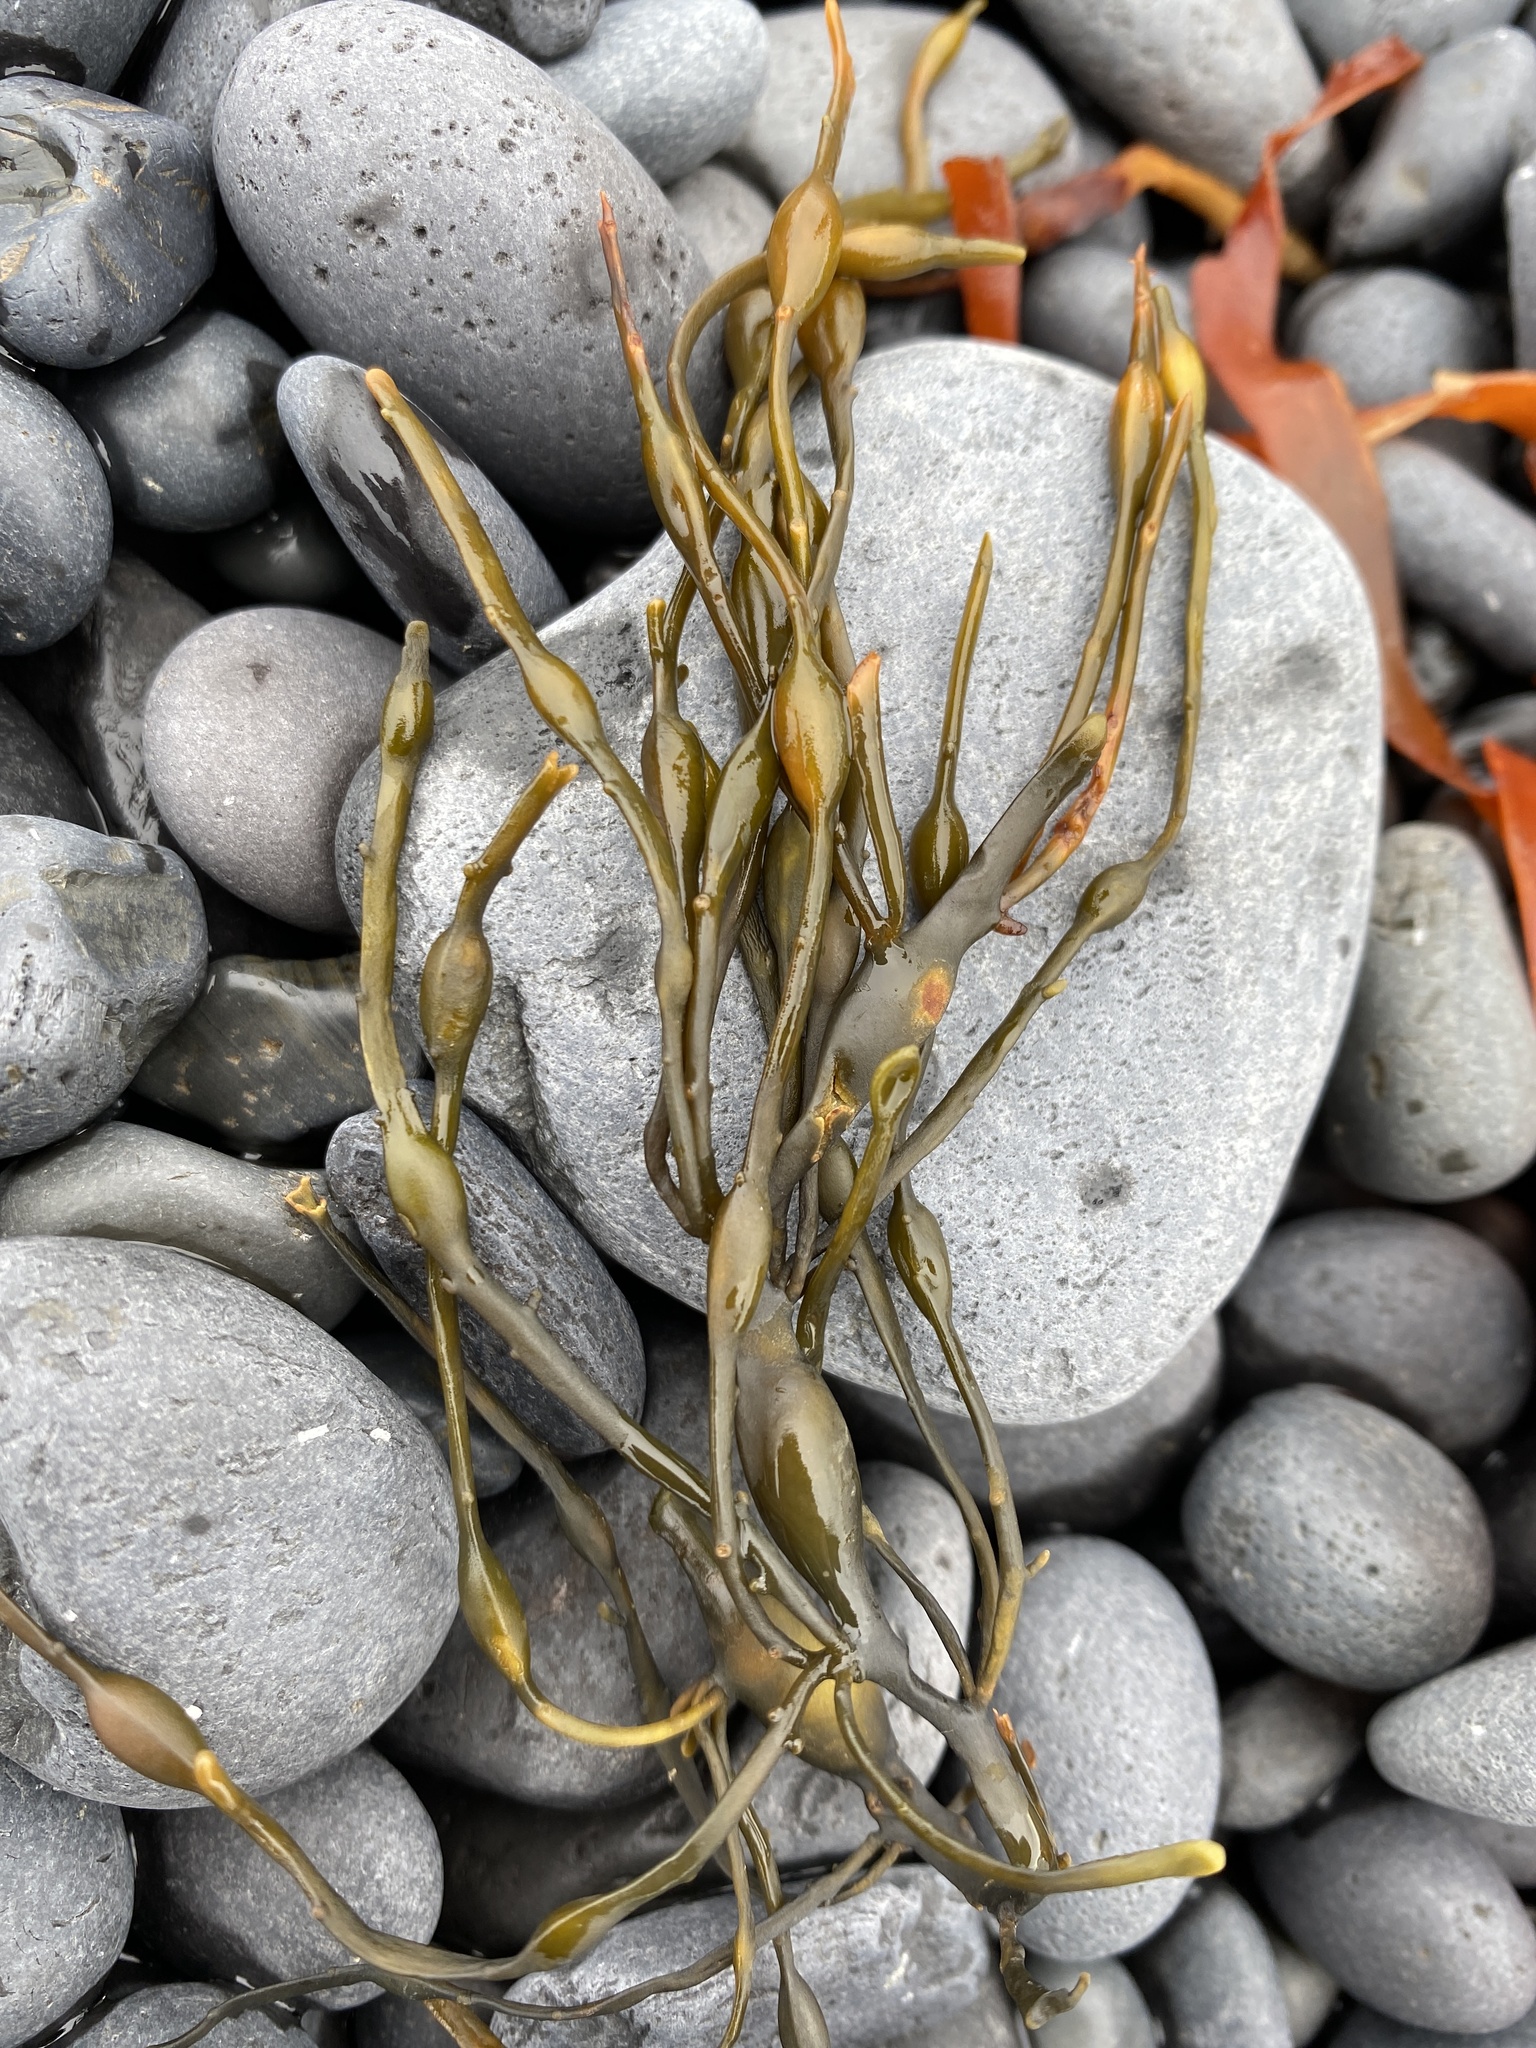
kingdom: Chromista
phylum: Ochrophyta
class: Phaeophyceae
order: Fucales
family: Fucaceae
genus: Ascophyllum
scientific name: Ascophyllum nodosum
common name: Knotted wrack
